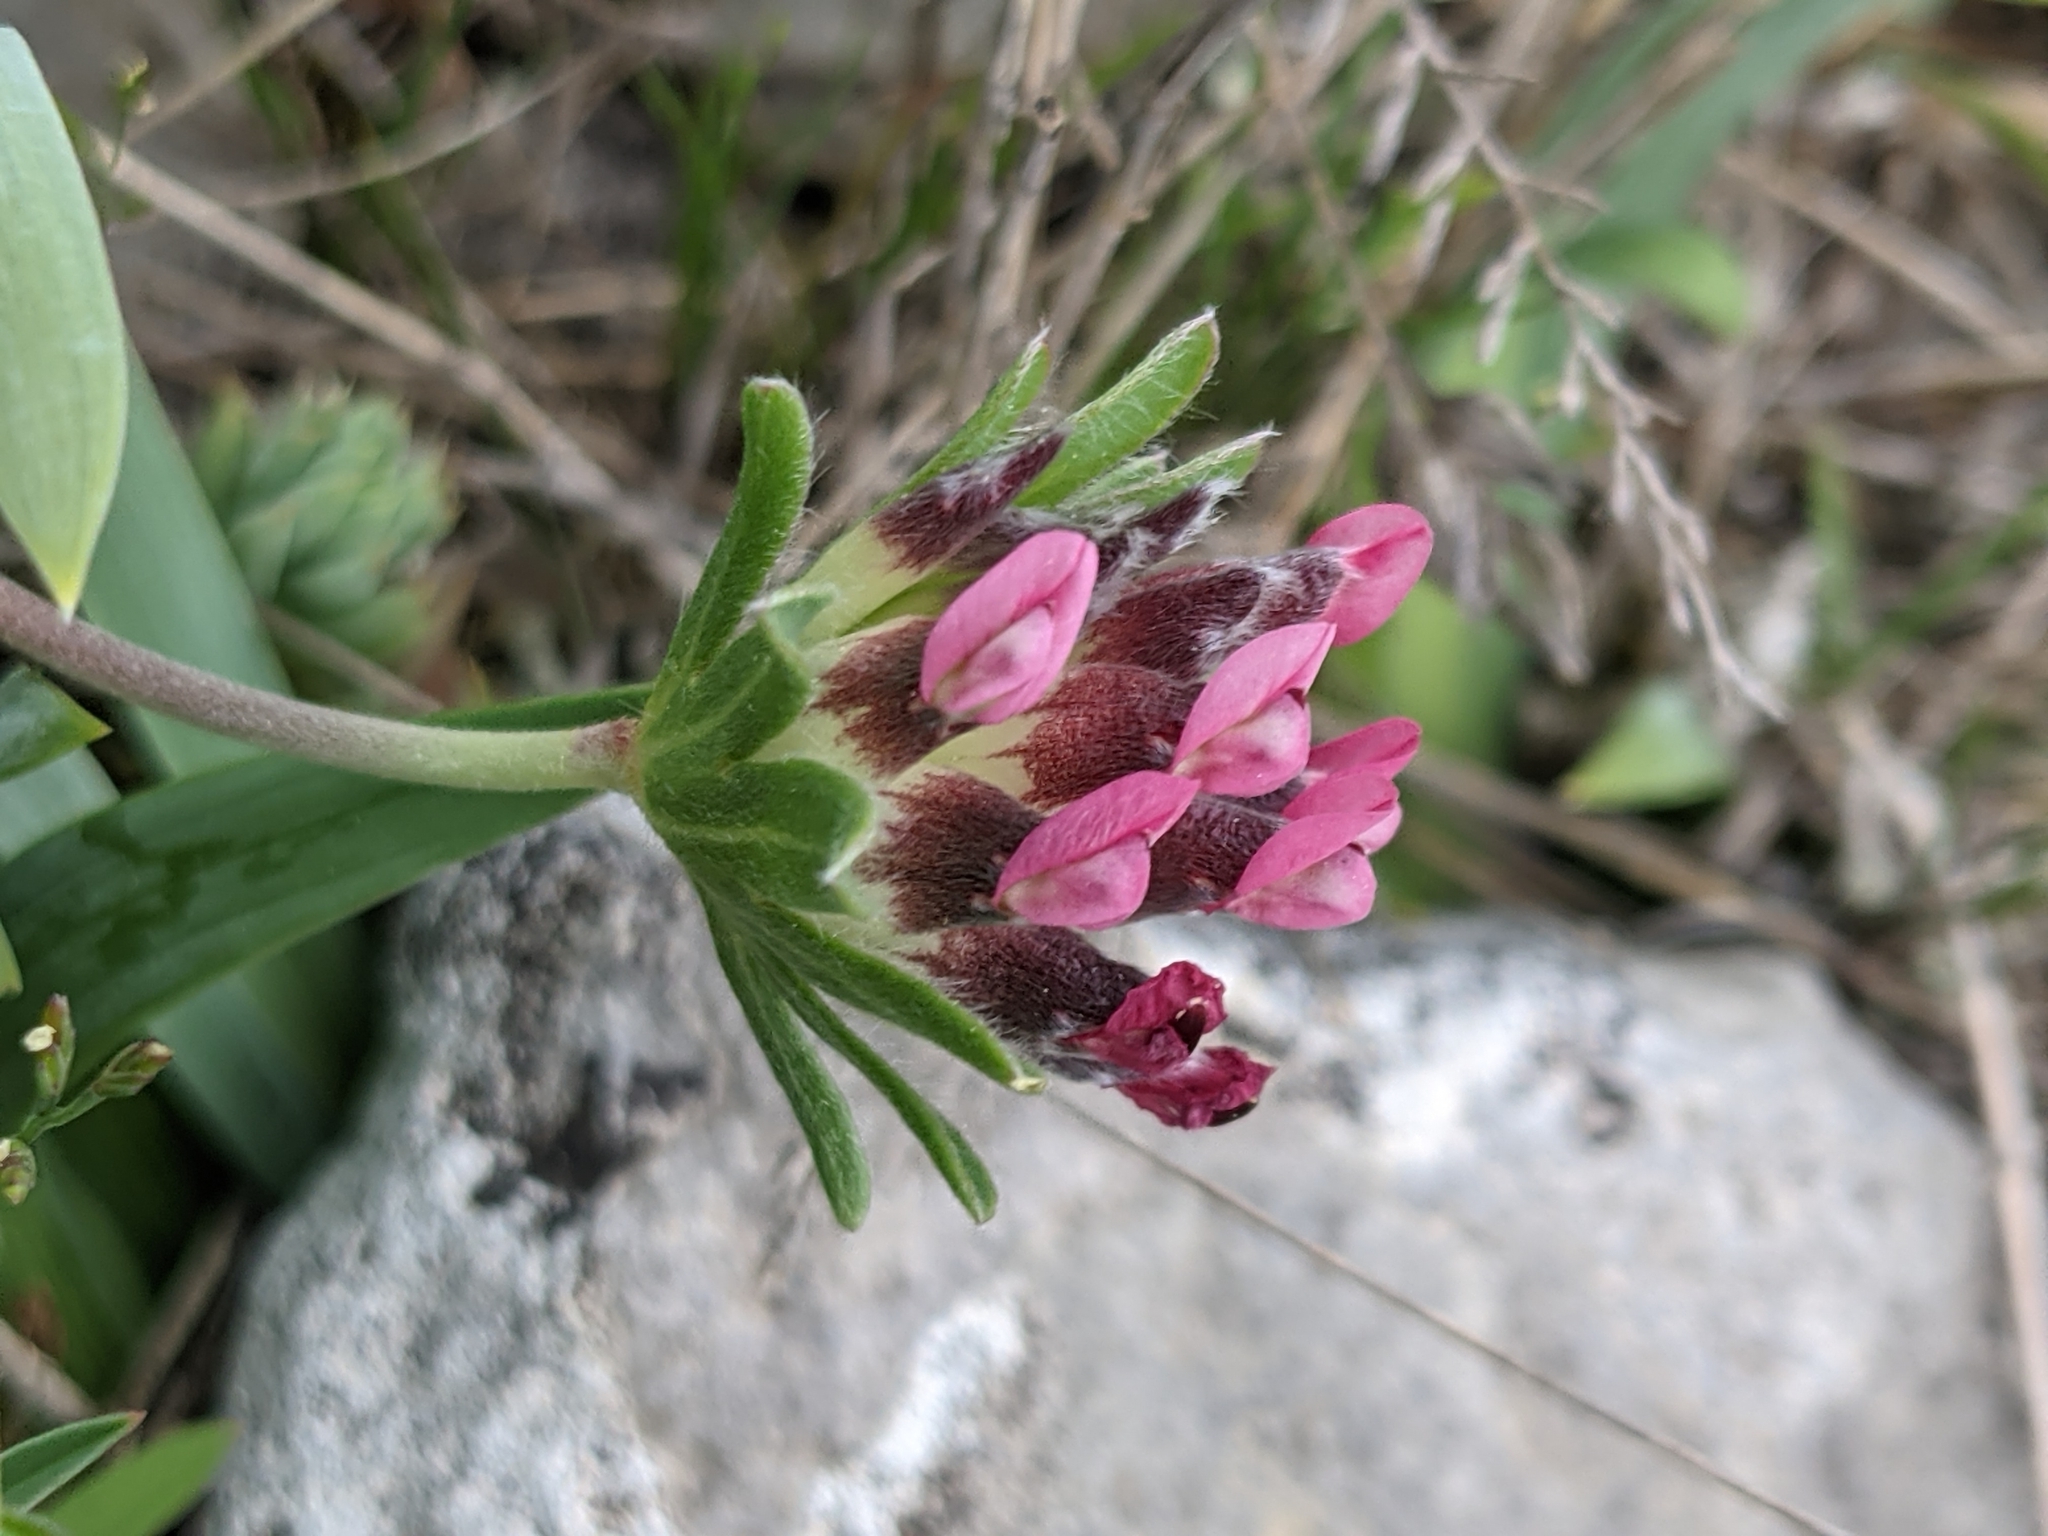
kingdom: Plantae
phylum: Tracheophyta
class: Magnoliopsida
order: Fabales
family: Fabaceae
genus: Anthyllis
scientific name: Anthyllis vulneraria
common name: Kidney vetch
